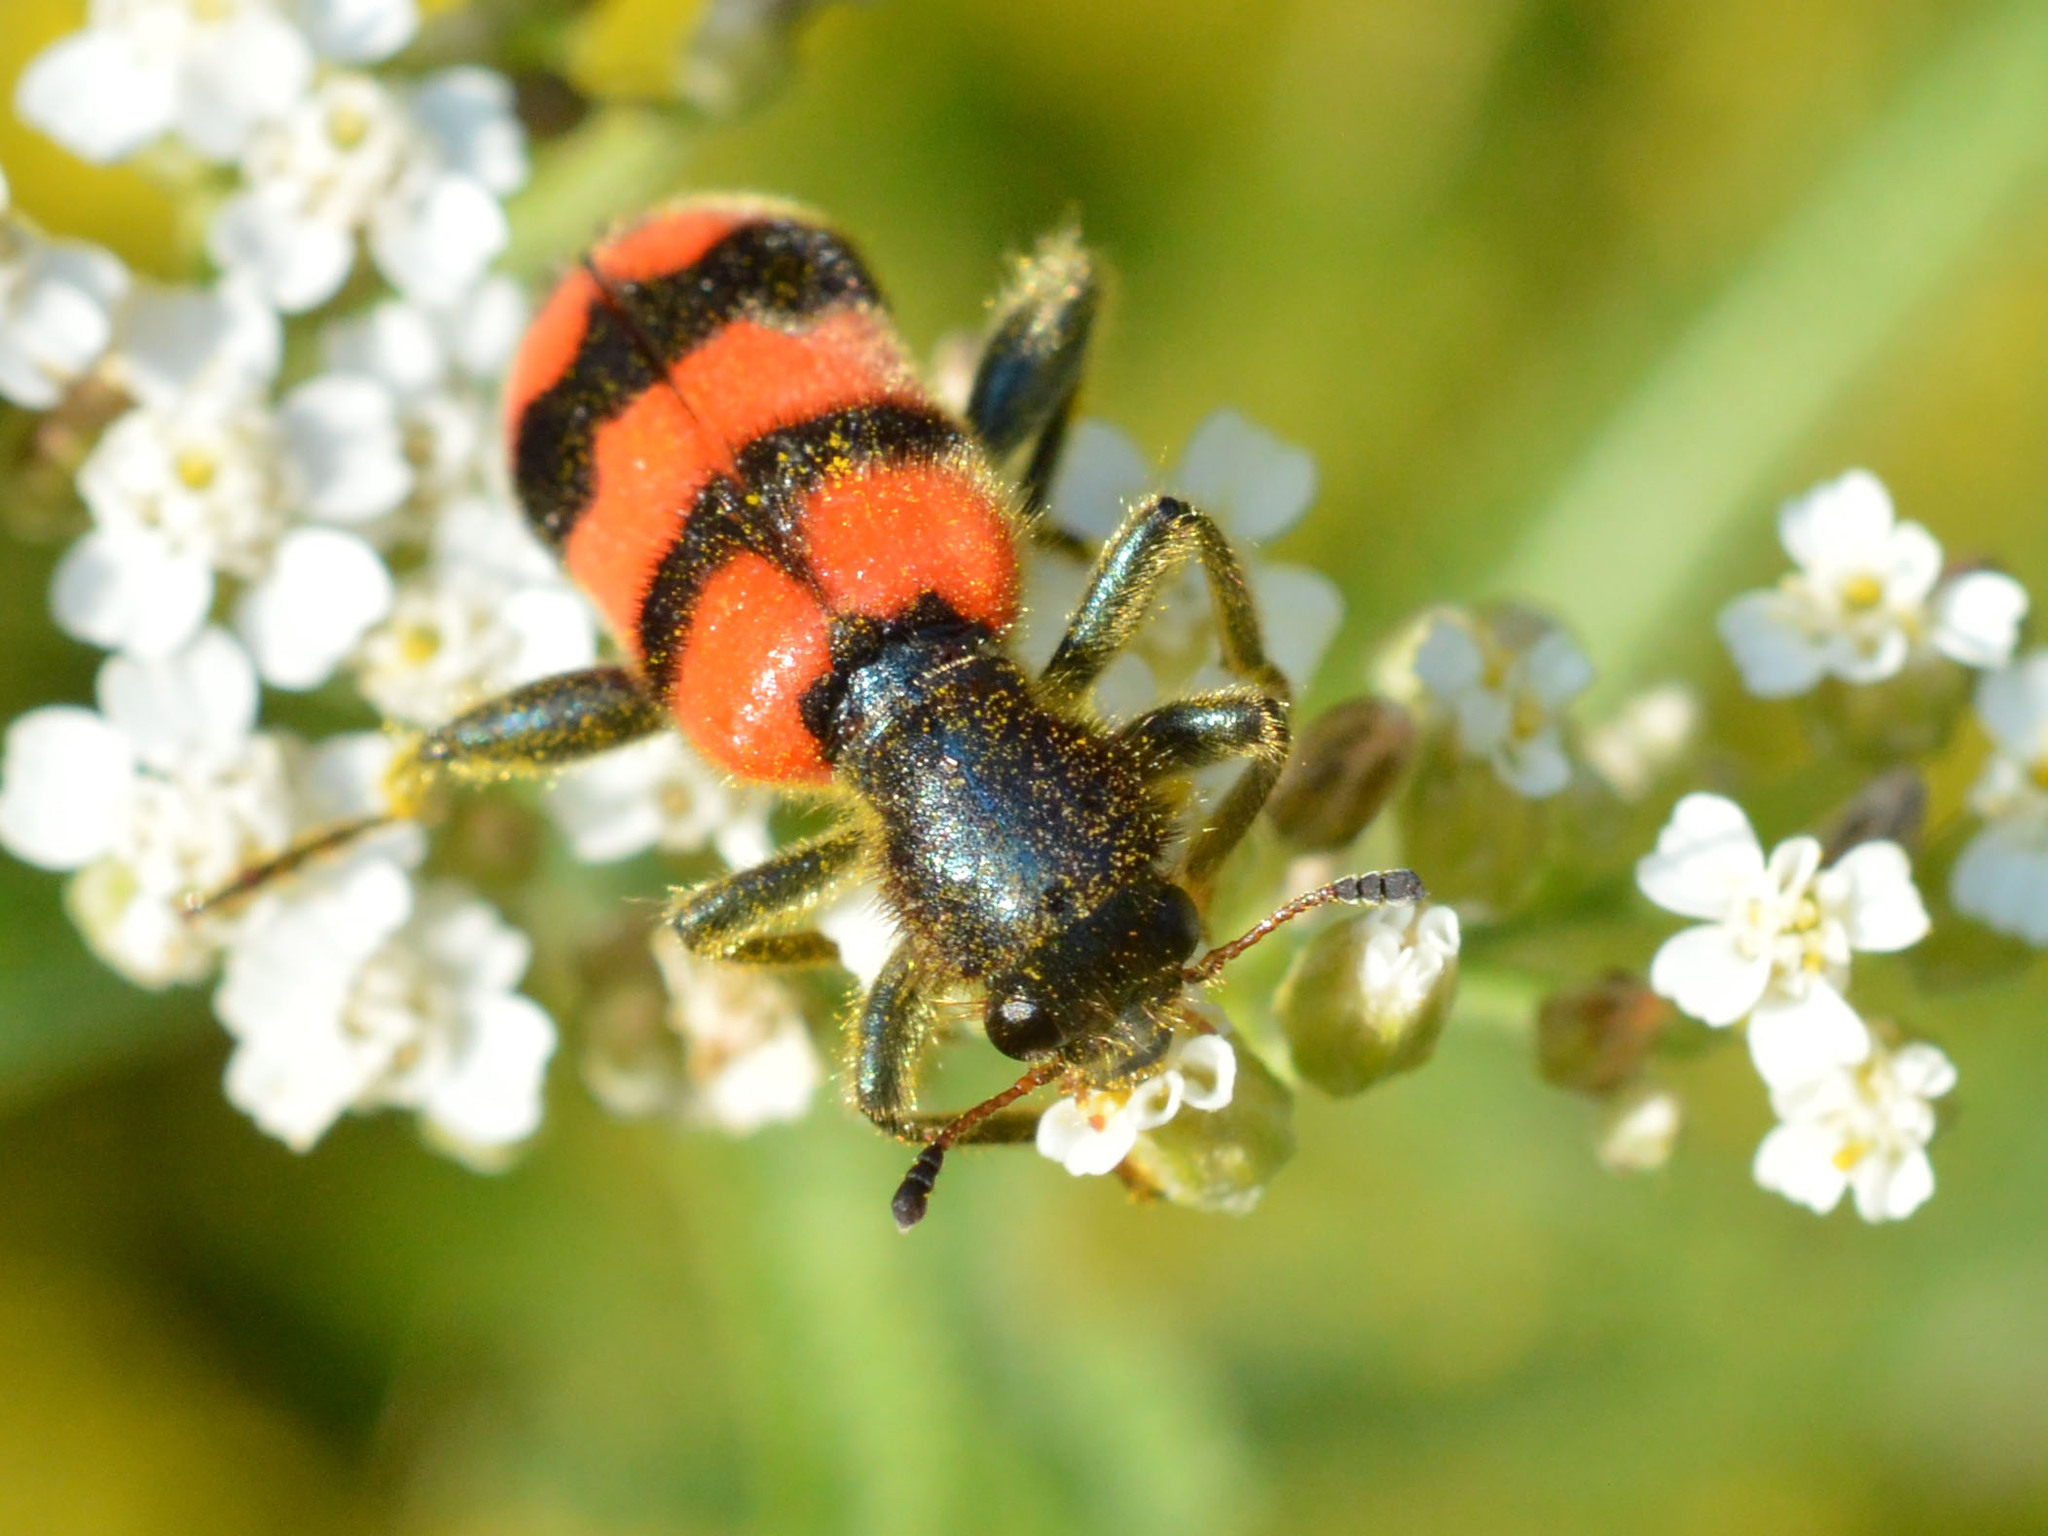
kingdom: Animalia
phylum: Arthropoda
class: Insecta
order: Coleoptera
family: Cleridae
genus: Trichodes
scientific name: Trichodes apiarius
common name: Bee-eating beetle
